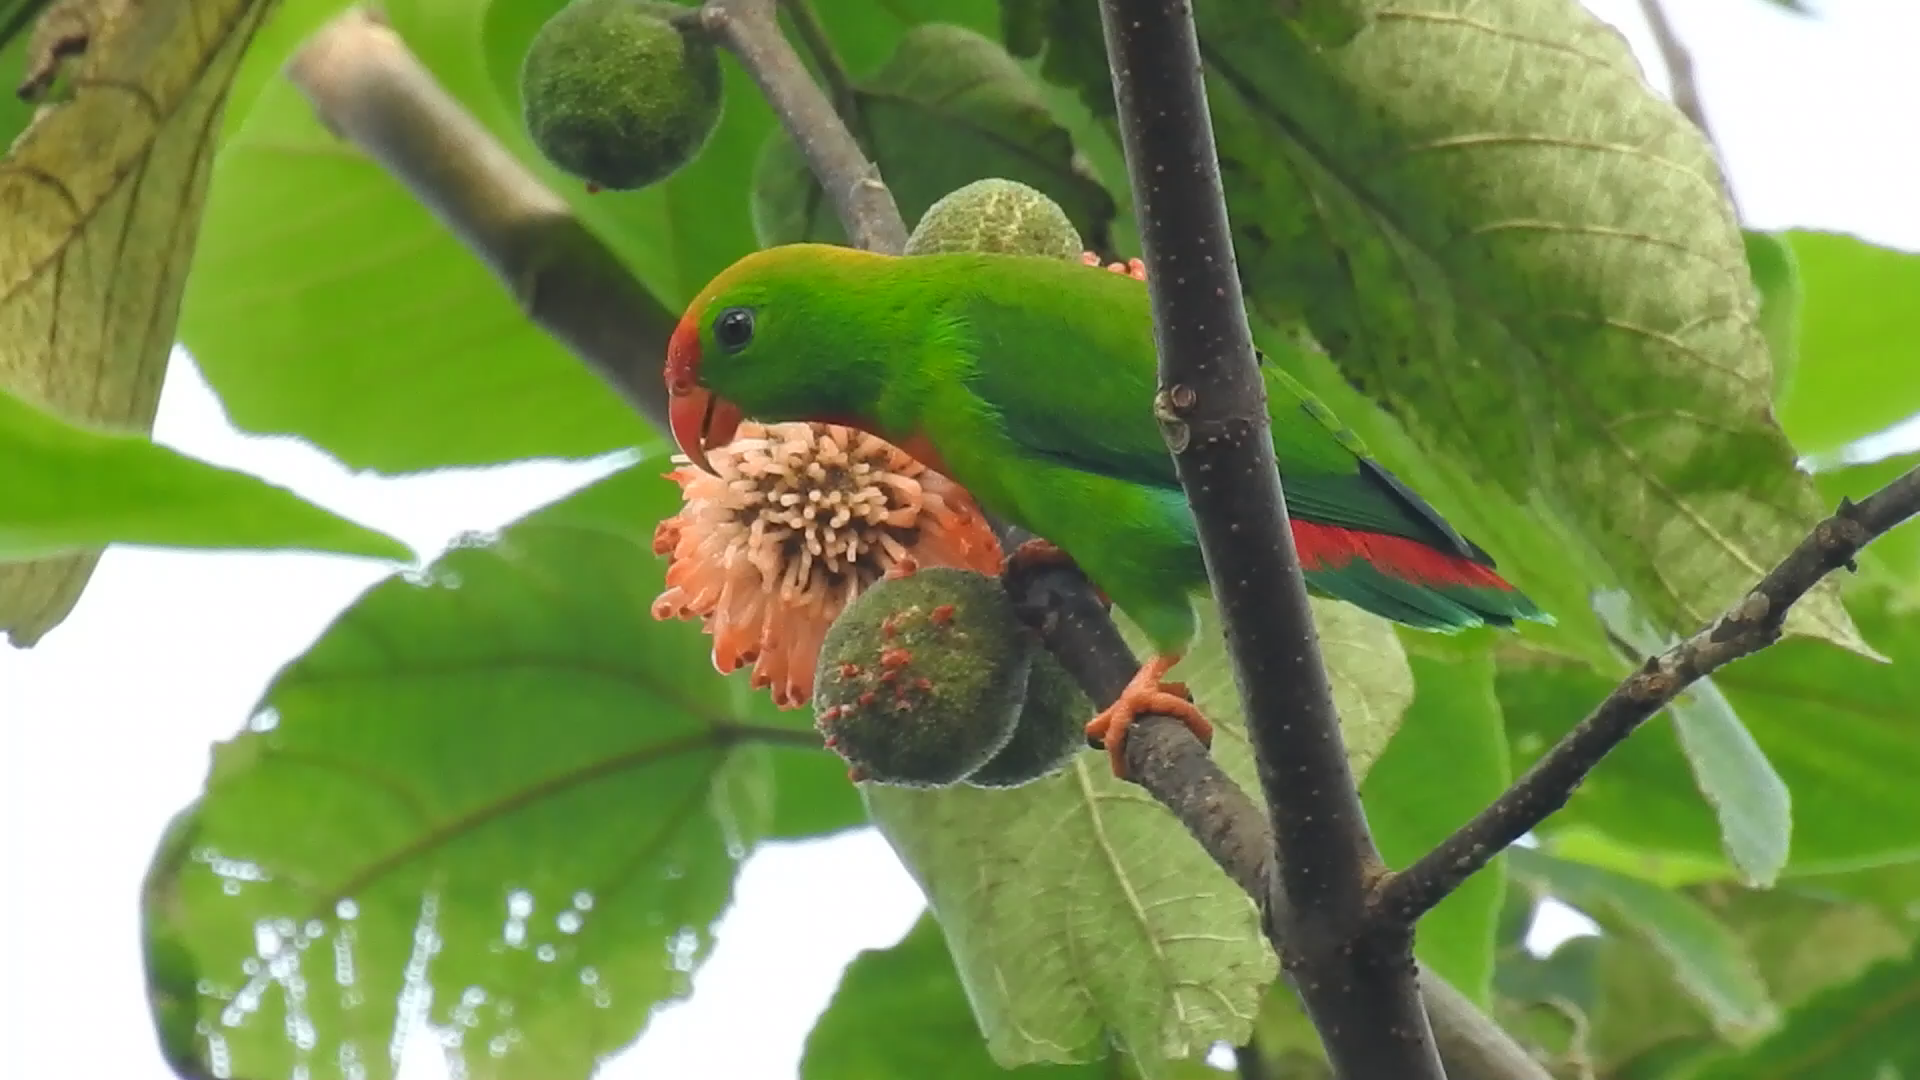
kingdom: Animalia
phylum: Chordata
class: Aves
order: Psittaciformes
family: Psittacidae
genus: Loriculus
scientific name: Loriculus philippensis
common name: Philippine hanging parrot
